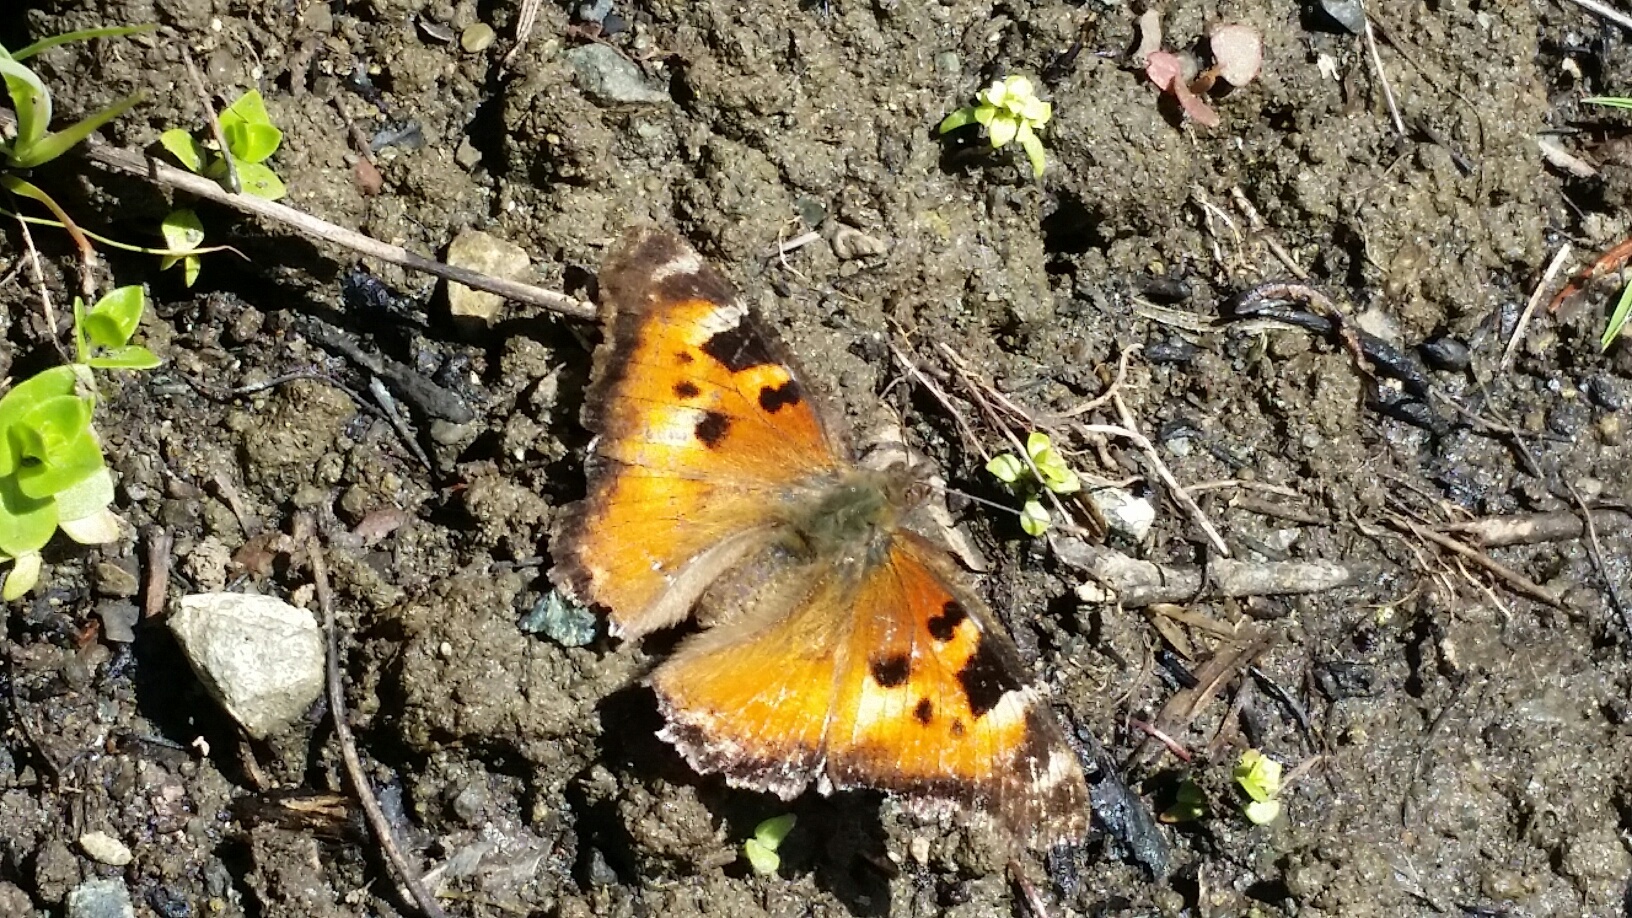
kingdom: Animalia
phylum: Arthropoda
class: Insecta
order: Lepidoptera
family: Nymphalidae
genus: Nymphalis
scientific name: Nymphalis californica
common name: California tortoiseshell
